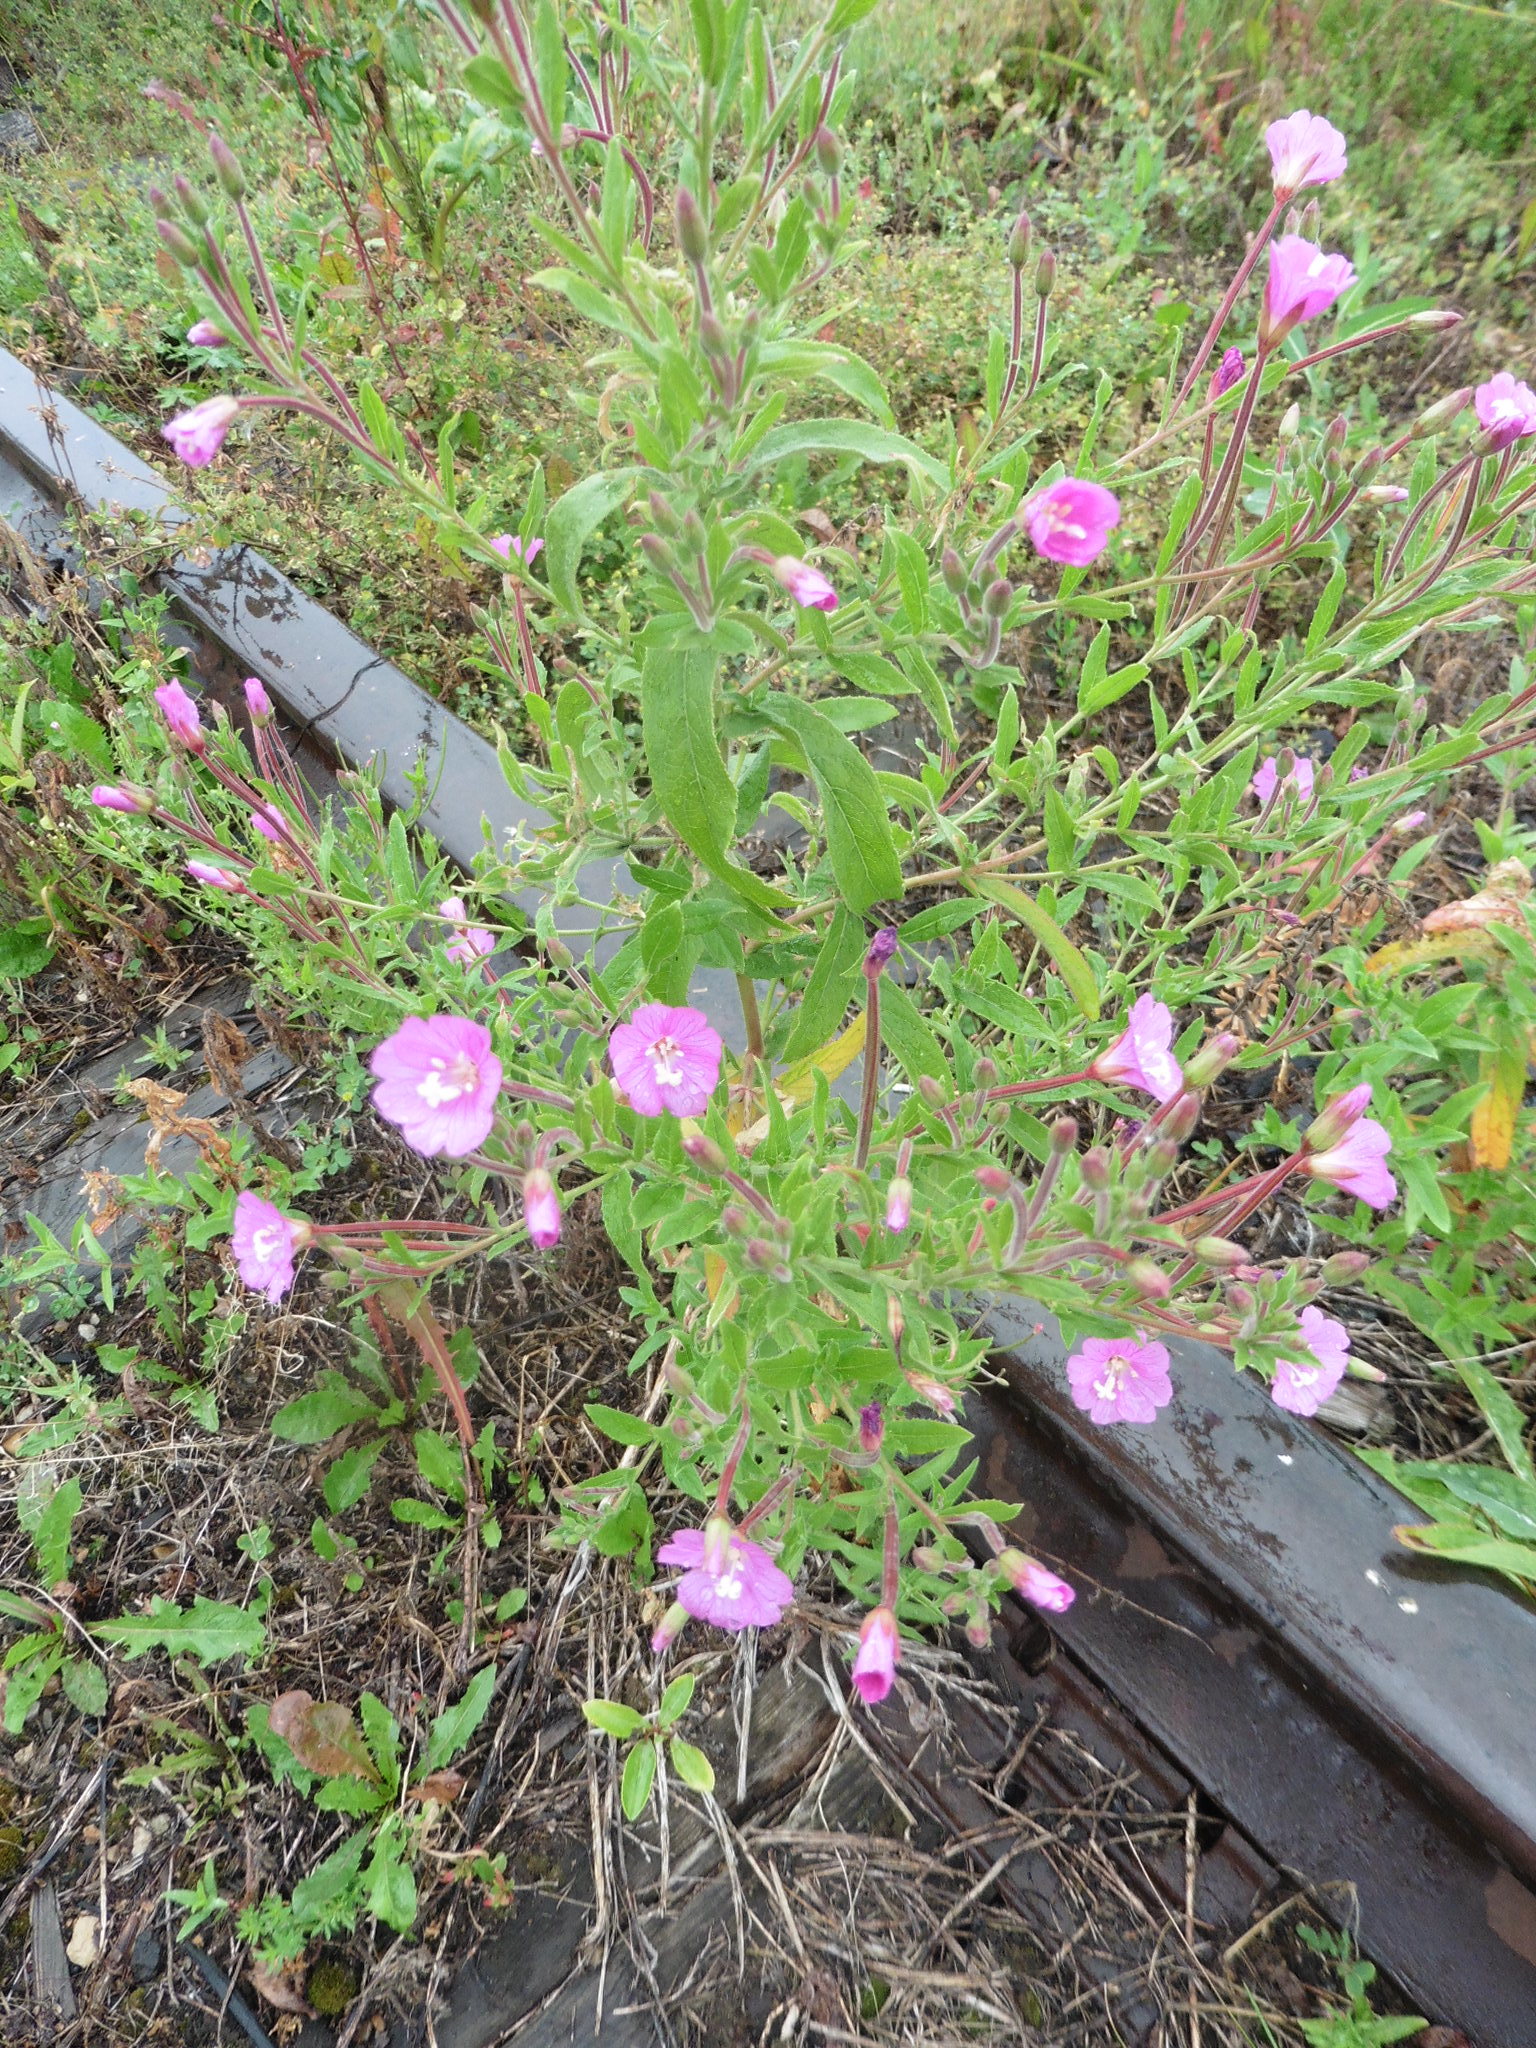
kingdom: Plantae
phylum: Tracheophyta
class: Magnoliopsida
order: Myrtales
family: Onagraceae
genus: Epilobium
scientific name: Epilobium hirsutum
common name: Great willowherb
